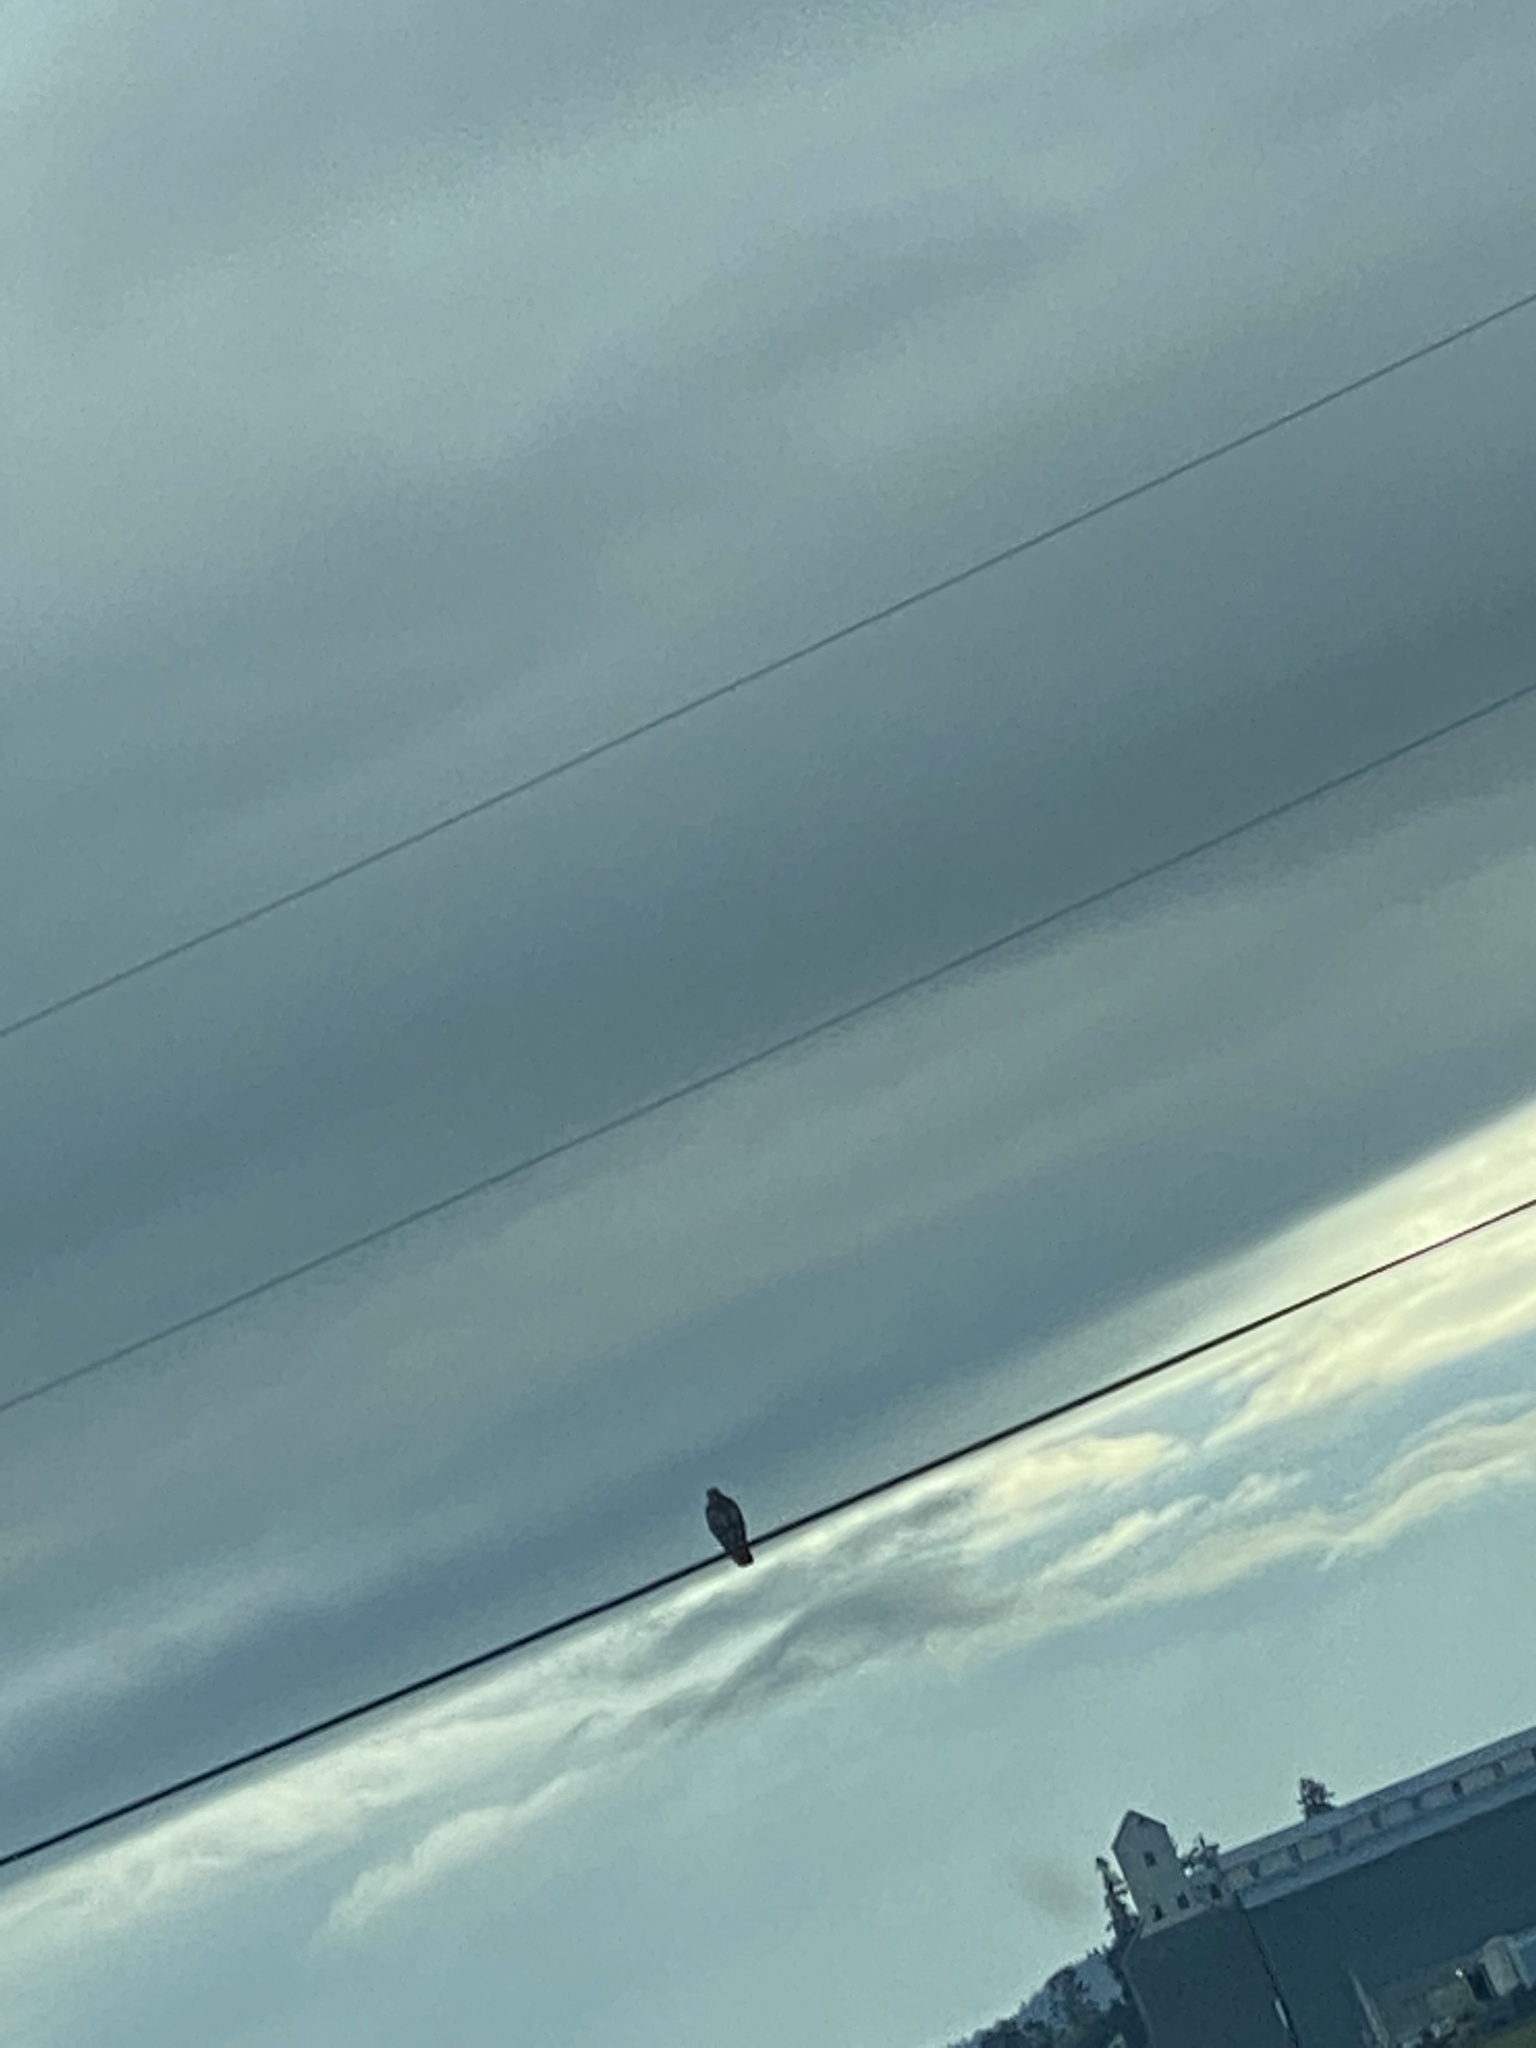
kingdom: Animalia
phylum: Chordata
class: Aves
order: Accipitriformes
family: Accipitridae
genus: Buteo
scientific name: Buteo jamaicensis
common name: Red-tailed hawk
